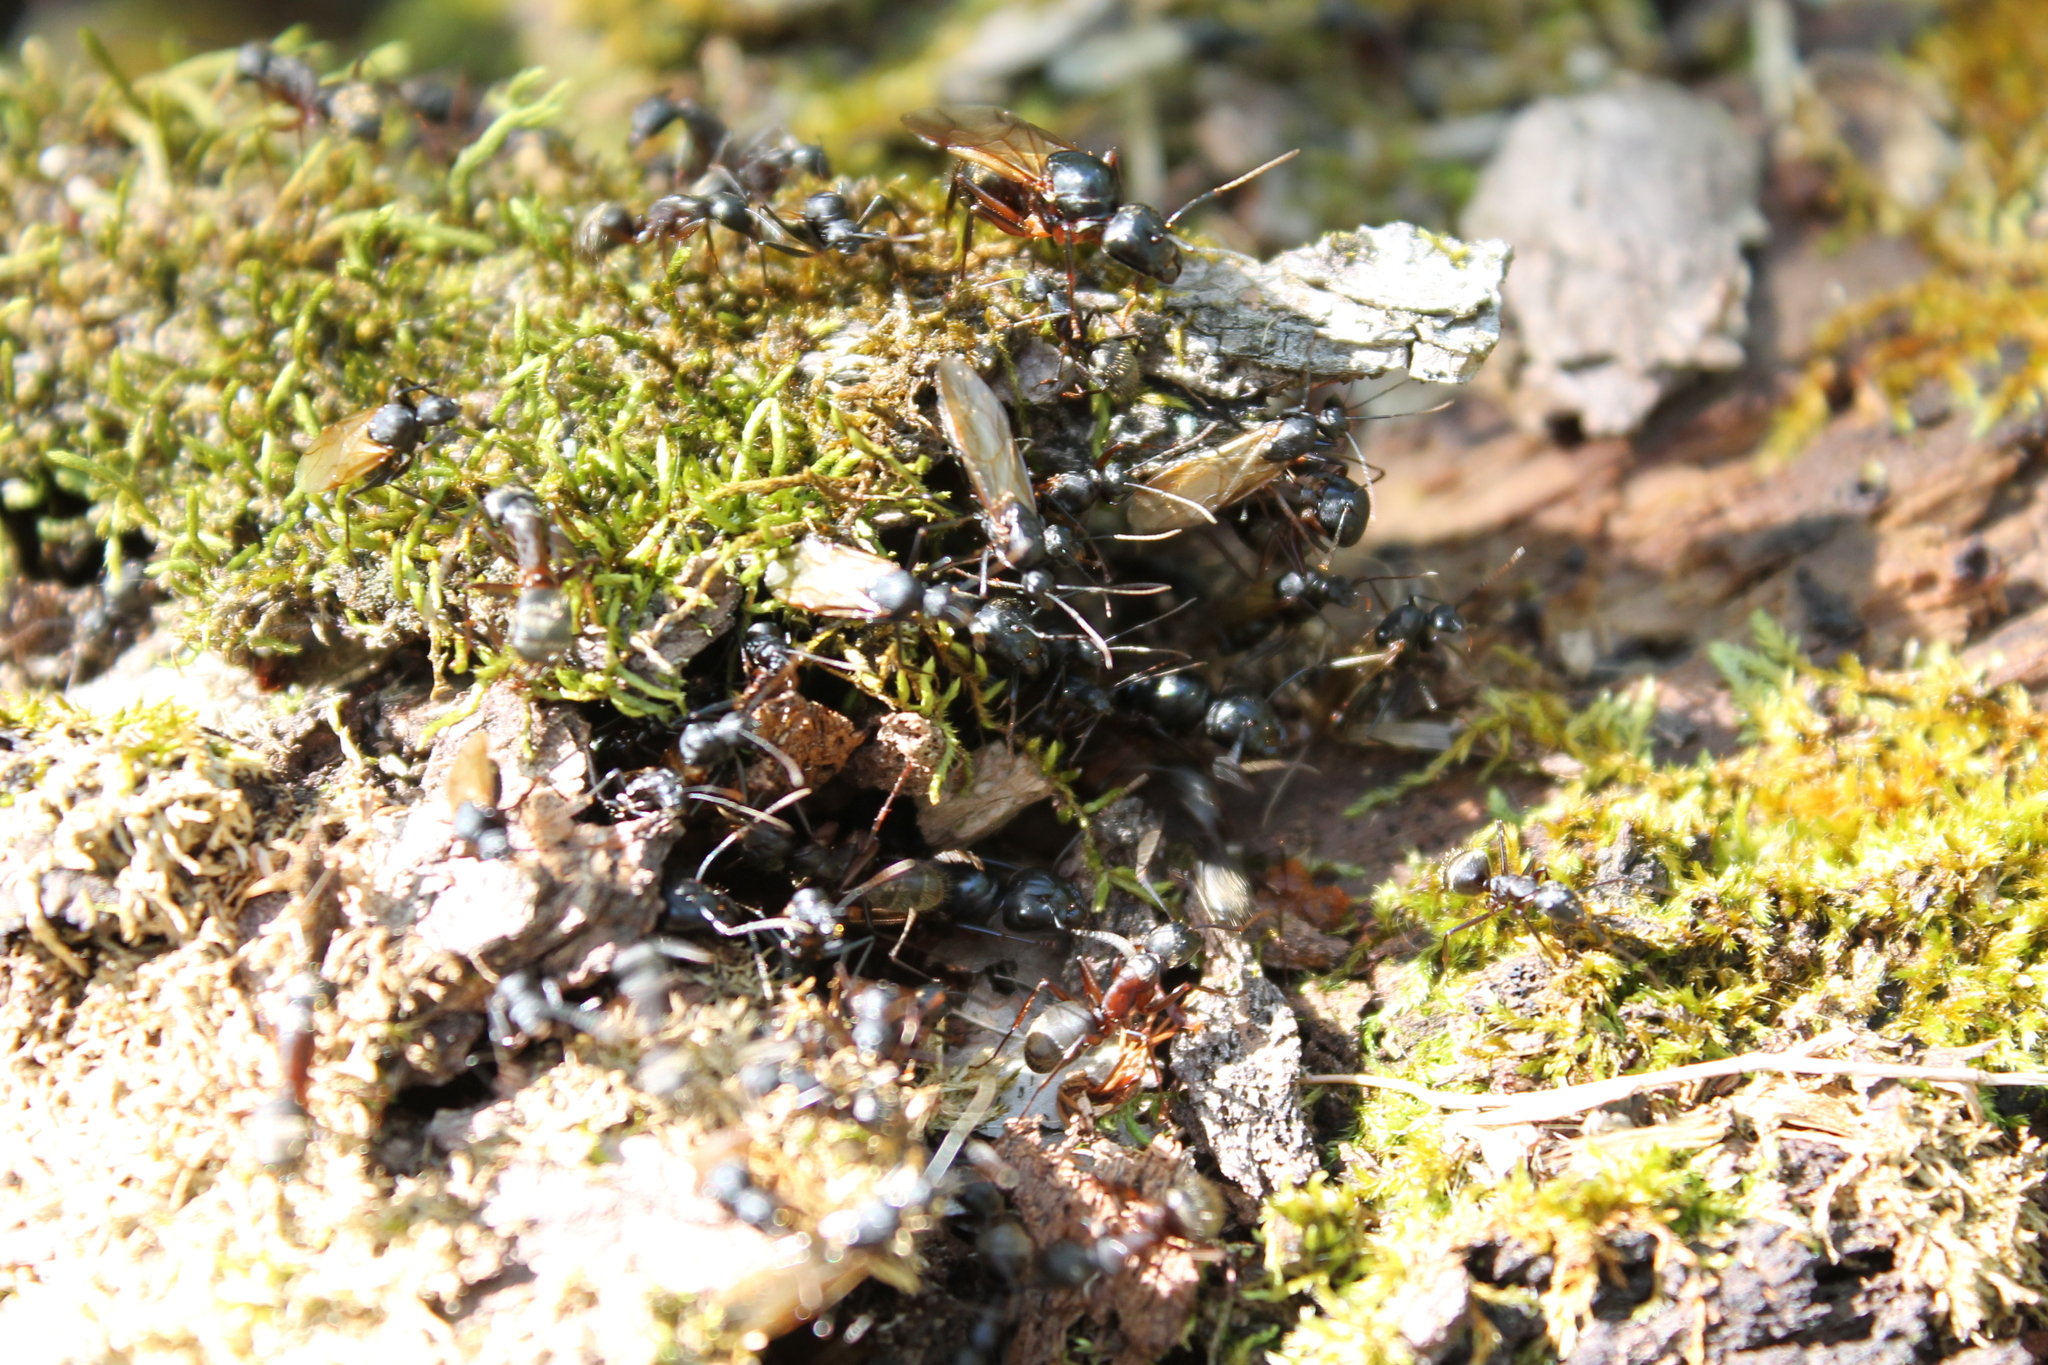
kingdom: Animalia
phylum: Arthropoda
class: Insecta
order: Hymenoptera
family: Formicidae
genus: Camponotus
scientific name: Camponotus pennsylvanicus
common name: Black carpenter ant
